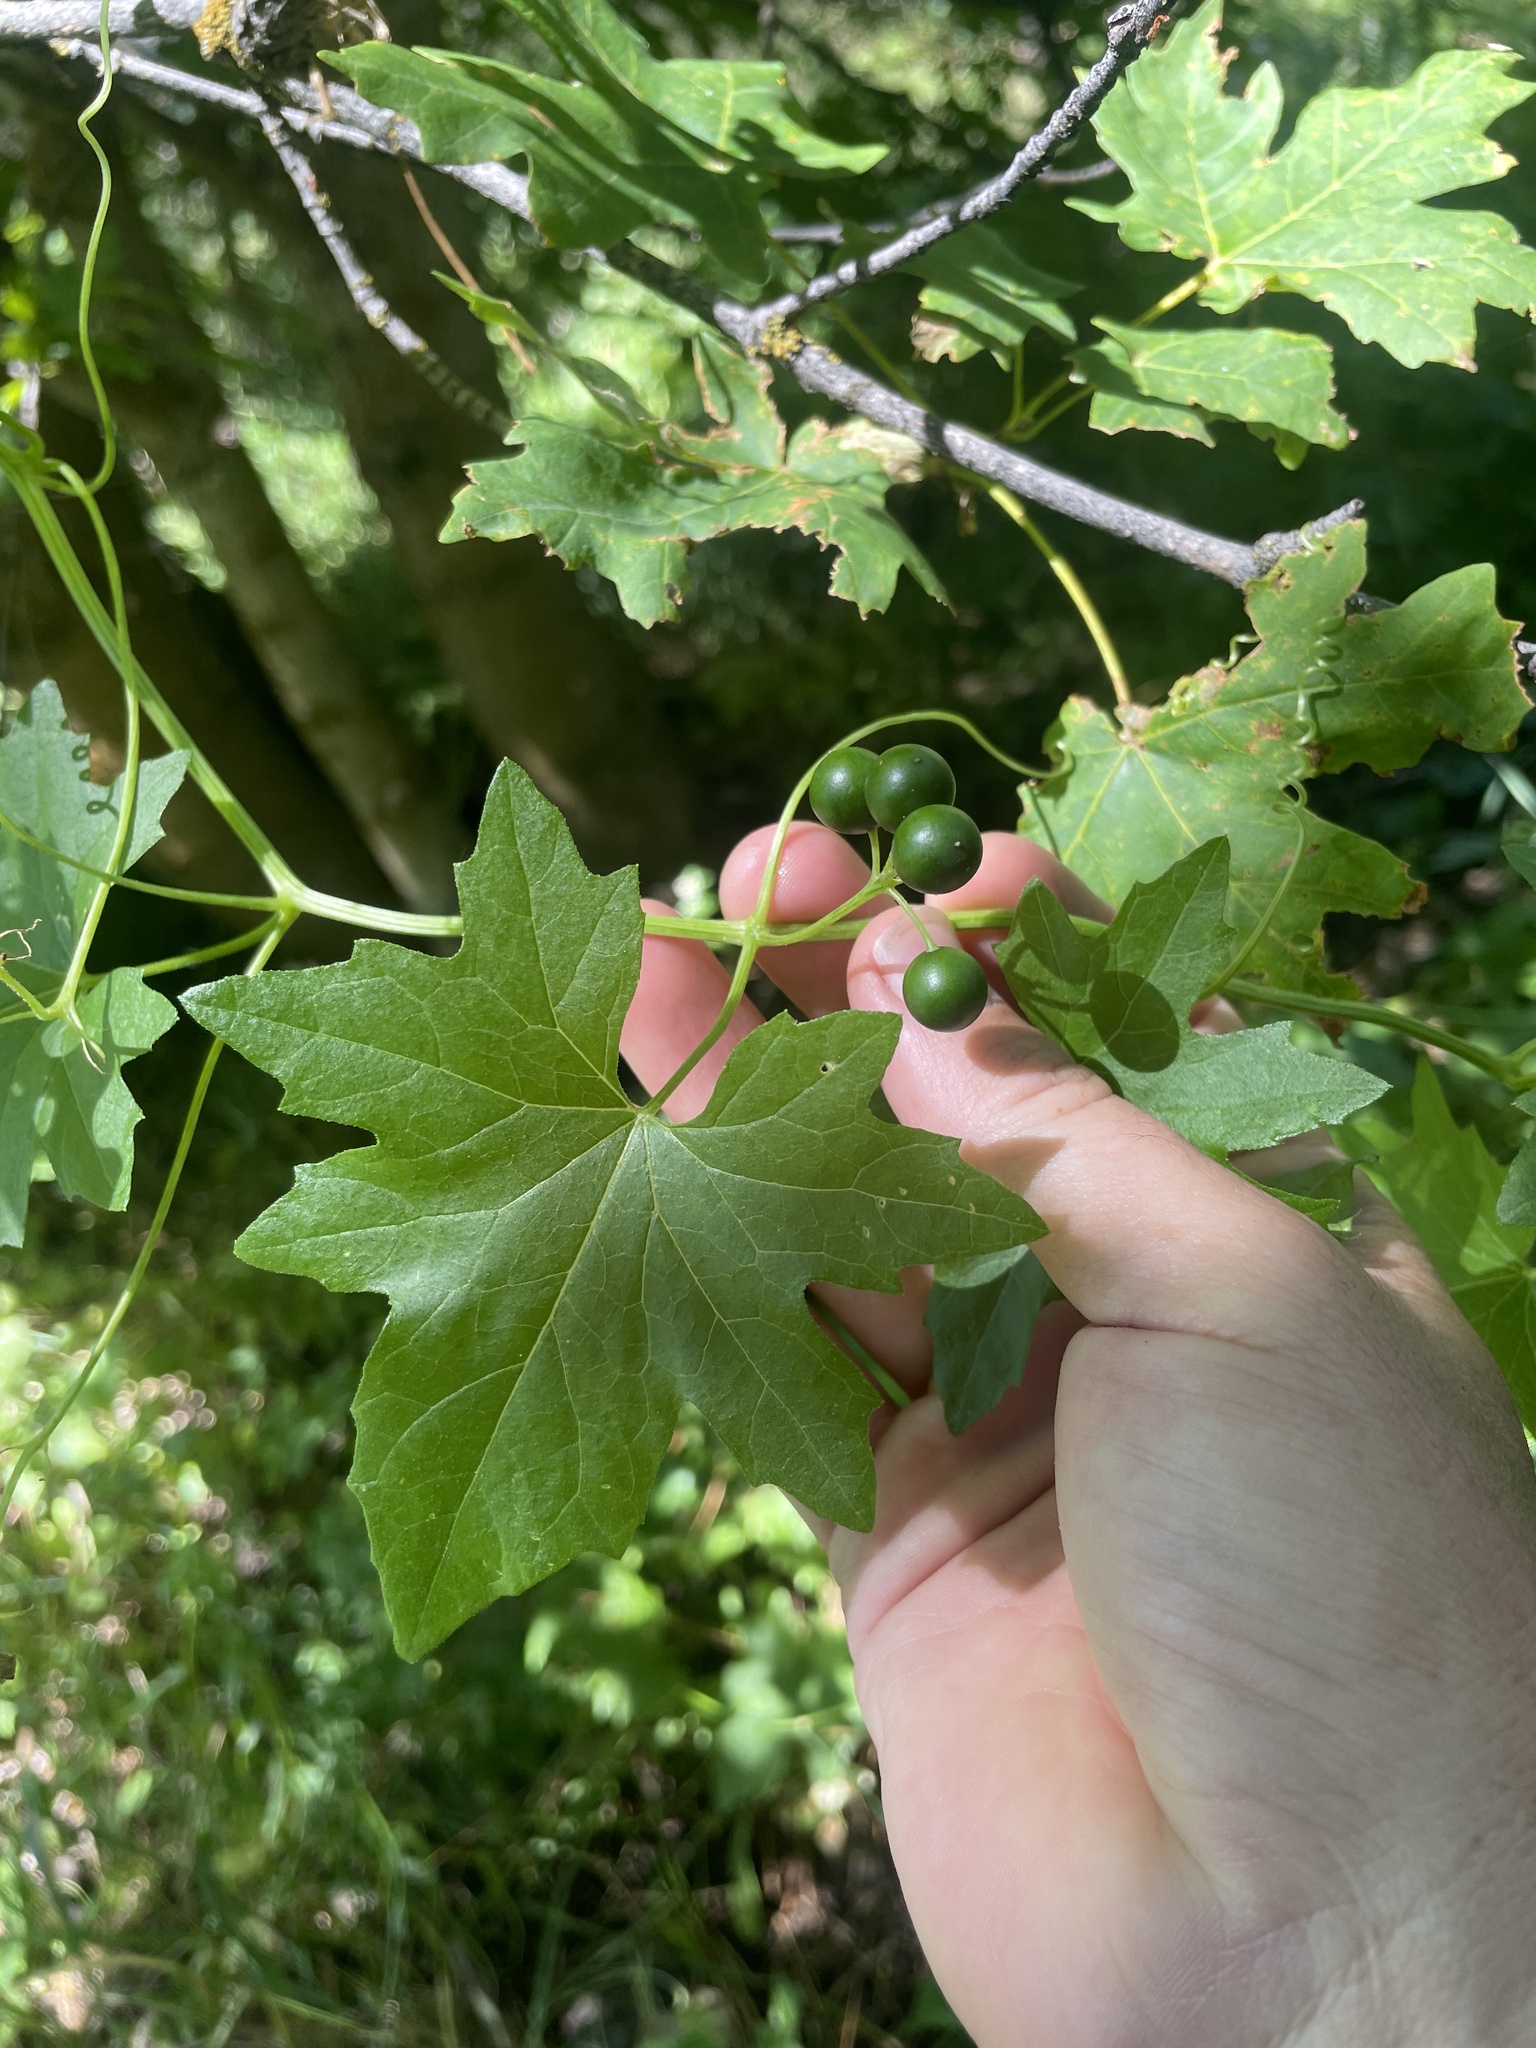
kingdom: Plantae
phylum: Tracheophyta
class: Magnoliopsida
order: Cucurbitales
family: Cucurbitaceae
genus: Bryonia
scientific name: Bryonia alba
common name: White bryony
